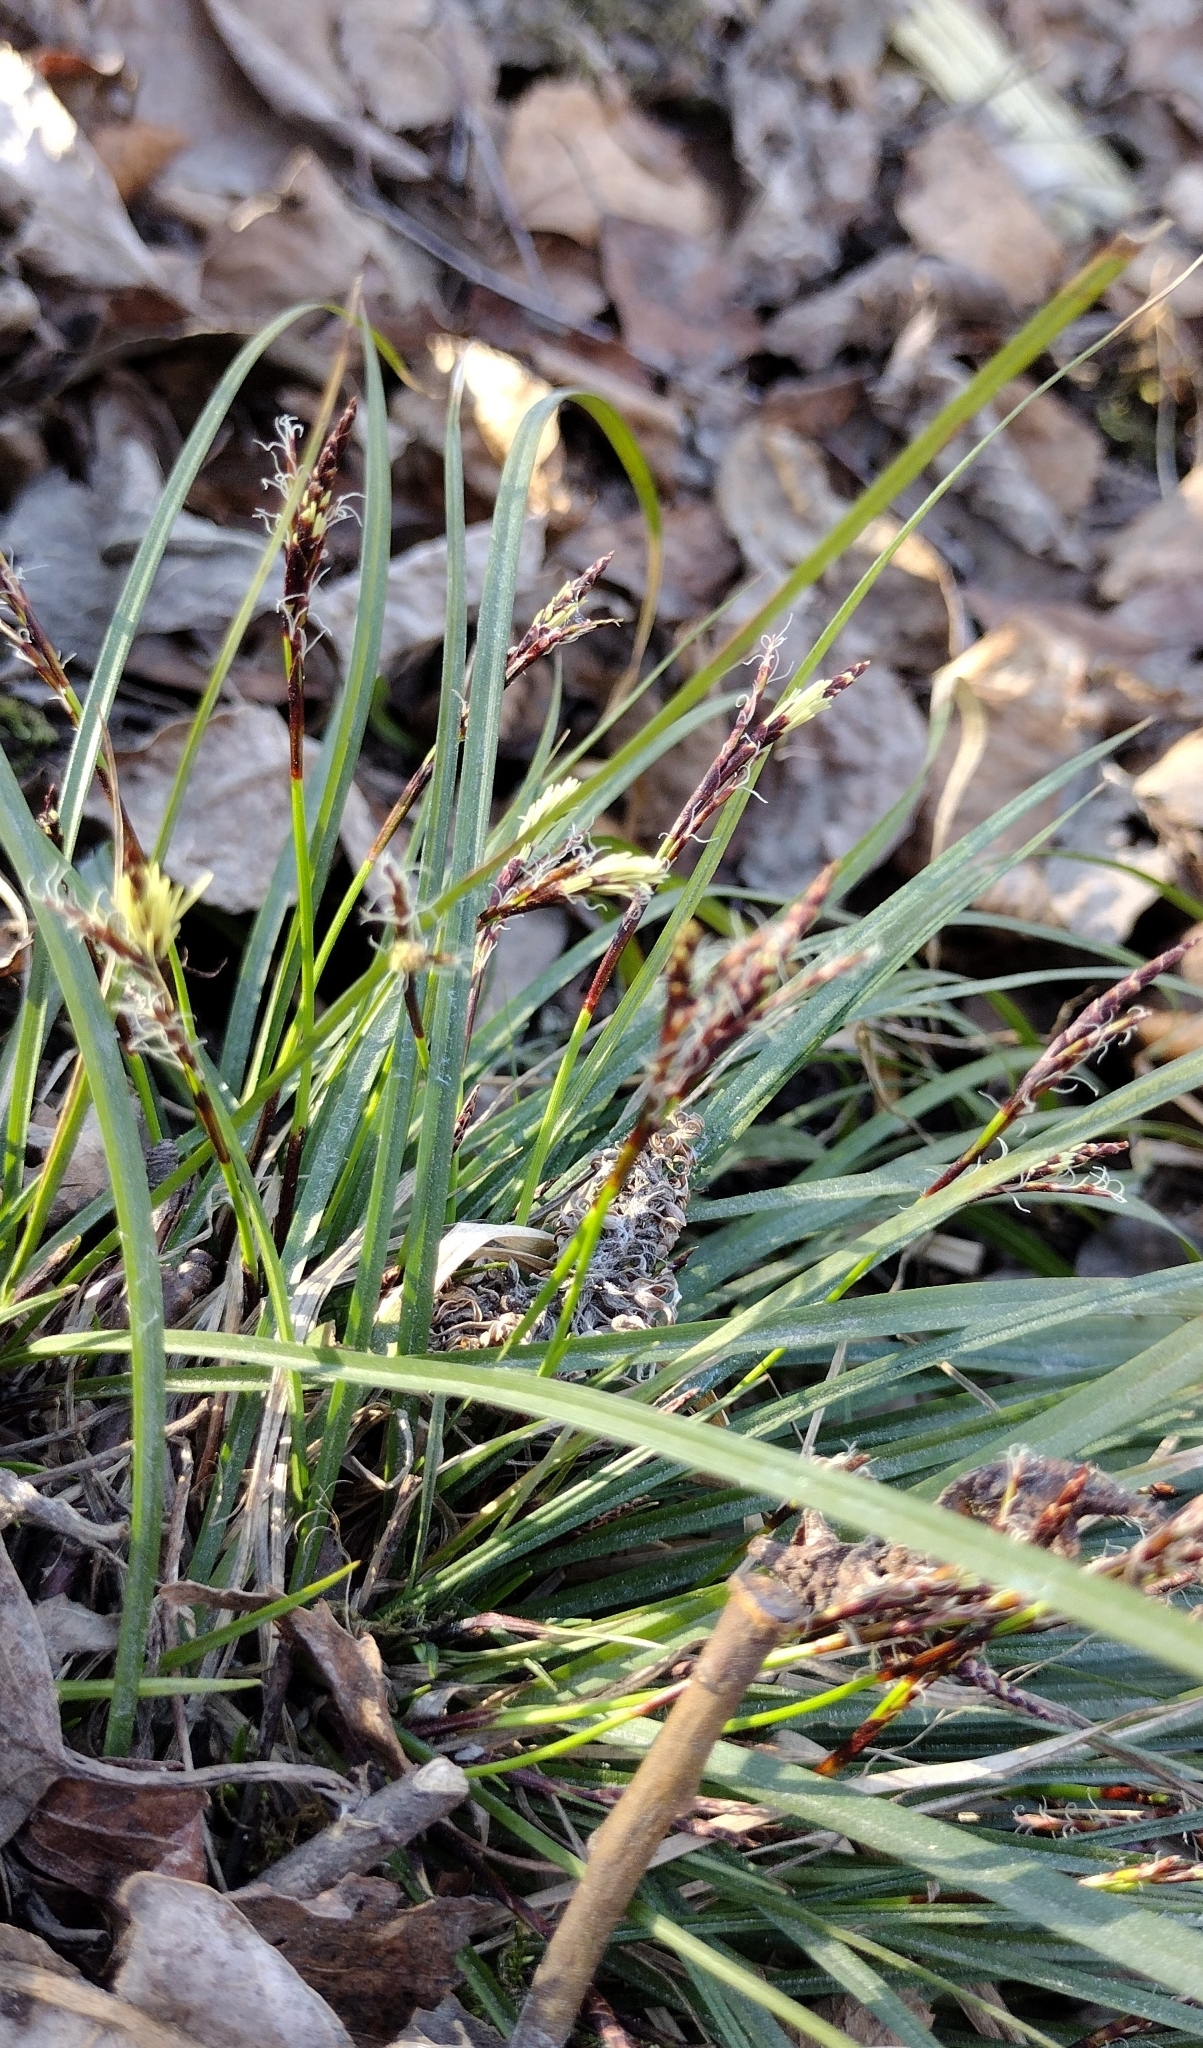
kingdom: Plantae
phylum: Tracheophyta
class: Liliopsida
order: Poales
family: Cyperaceae
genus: Carex
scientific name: Carex digitata
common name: Fingered sedge
